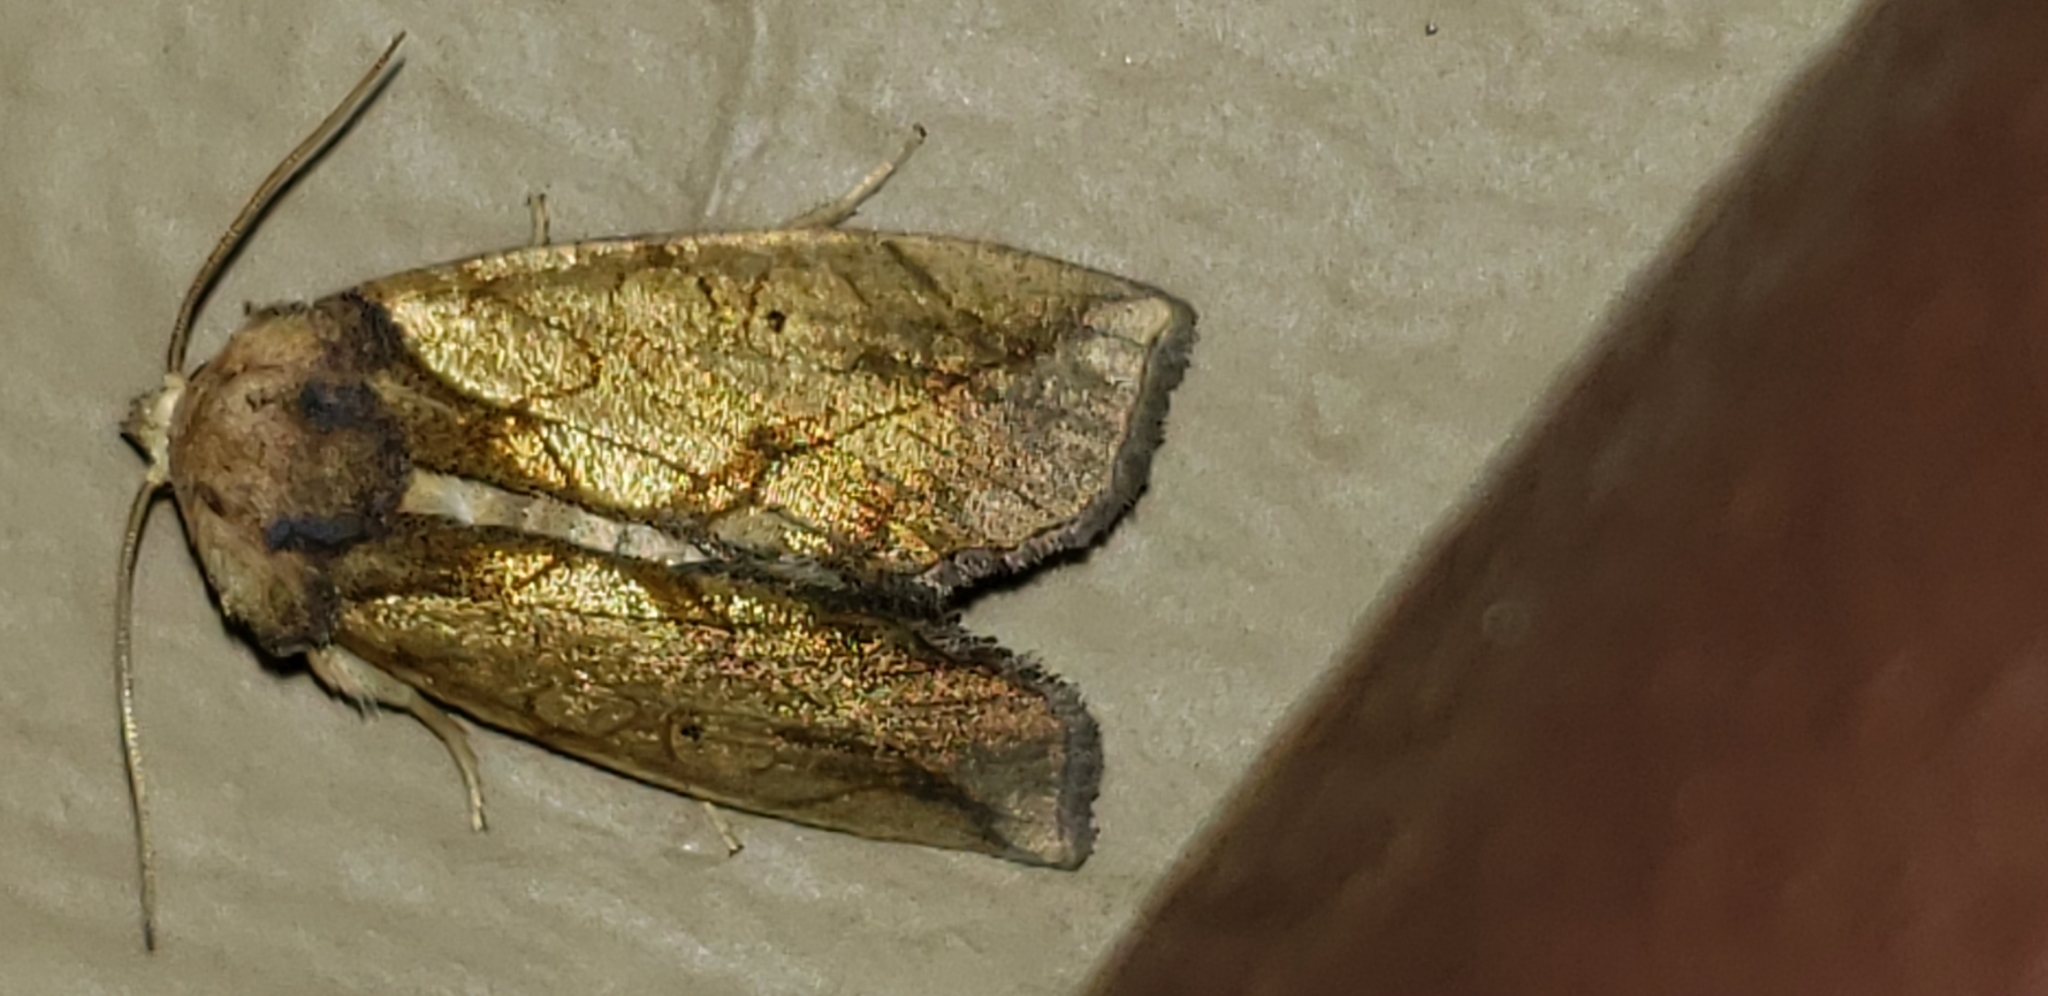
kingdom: Animalia
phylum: Arthropoda
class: Insecta
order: Lepidoptera
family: Noctuidae
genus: Basilodes
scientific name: Basilodes pepita
